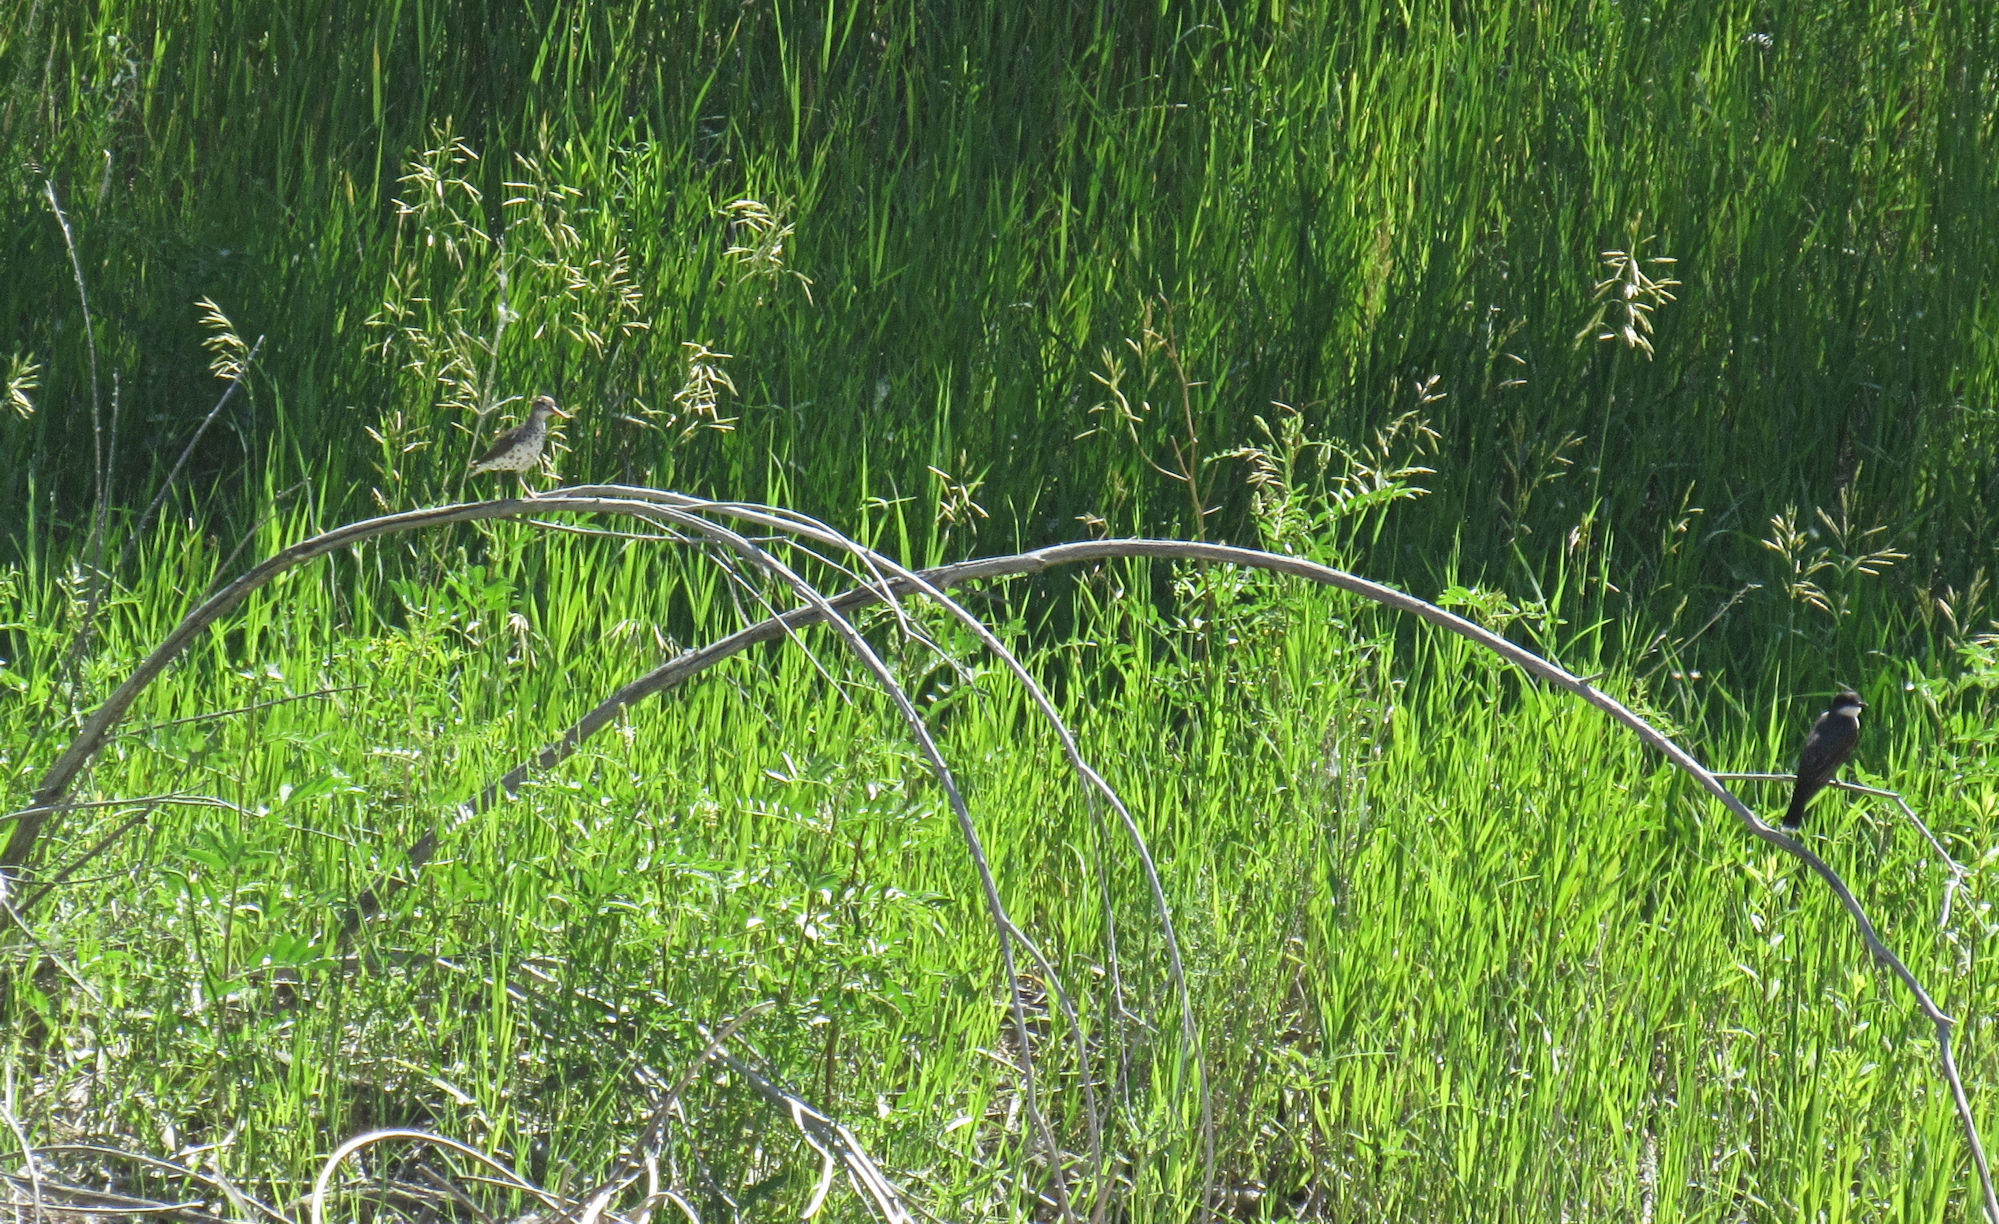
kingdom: Animalia
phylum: Chordata
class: Aves
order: Passeriformes
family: Tyrannidae
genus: Tyrannus
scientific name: Tyrannus tyrannus
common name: Eastern kingbird
